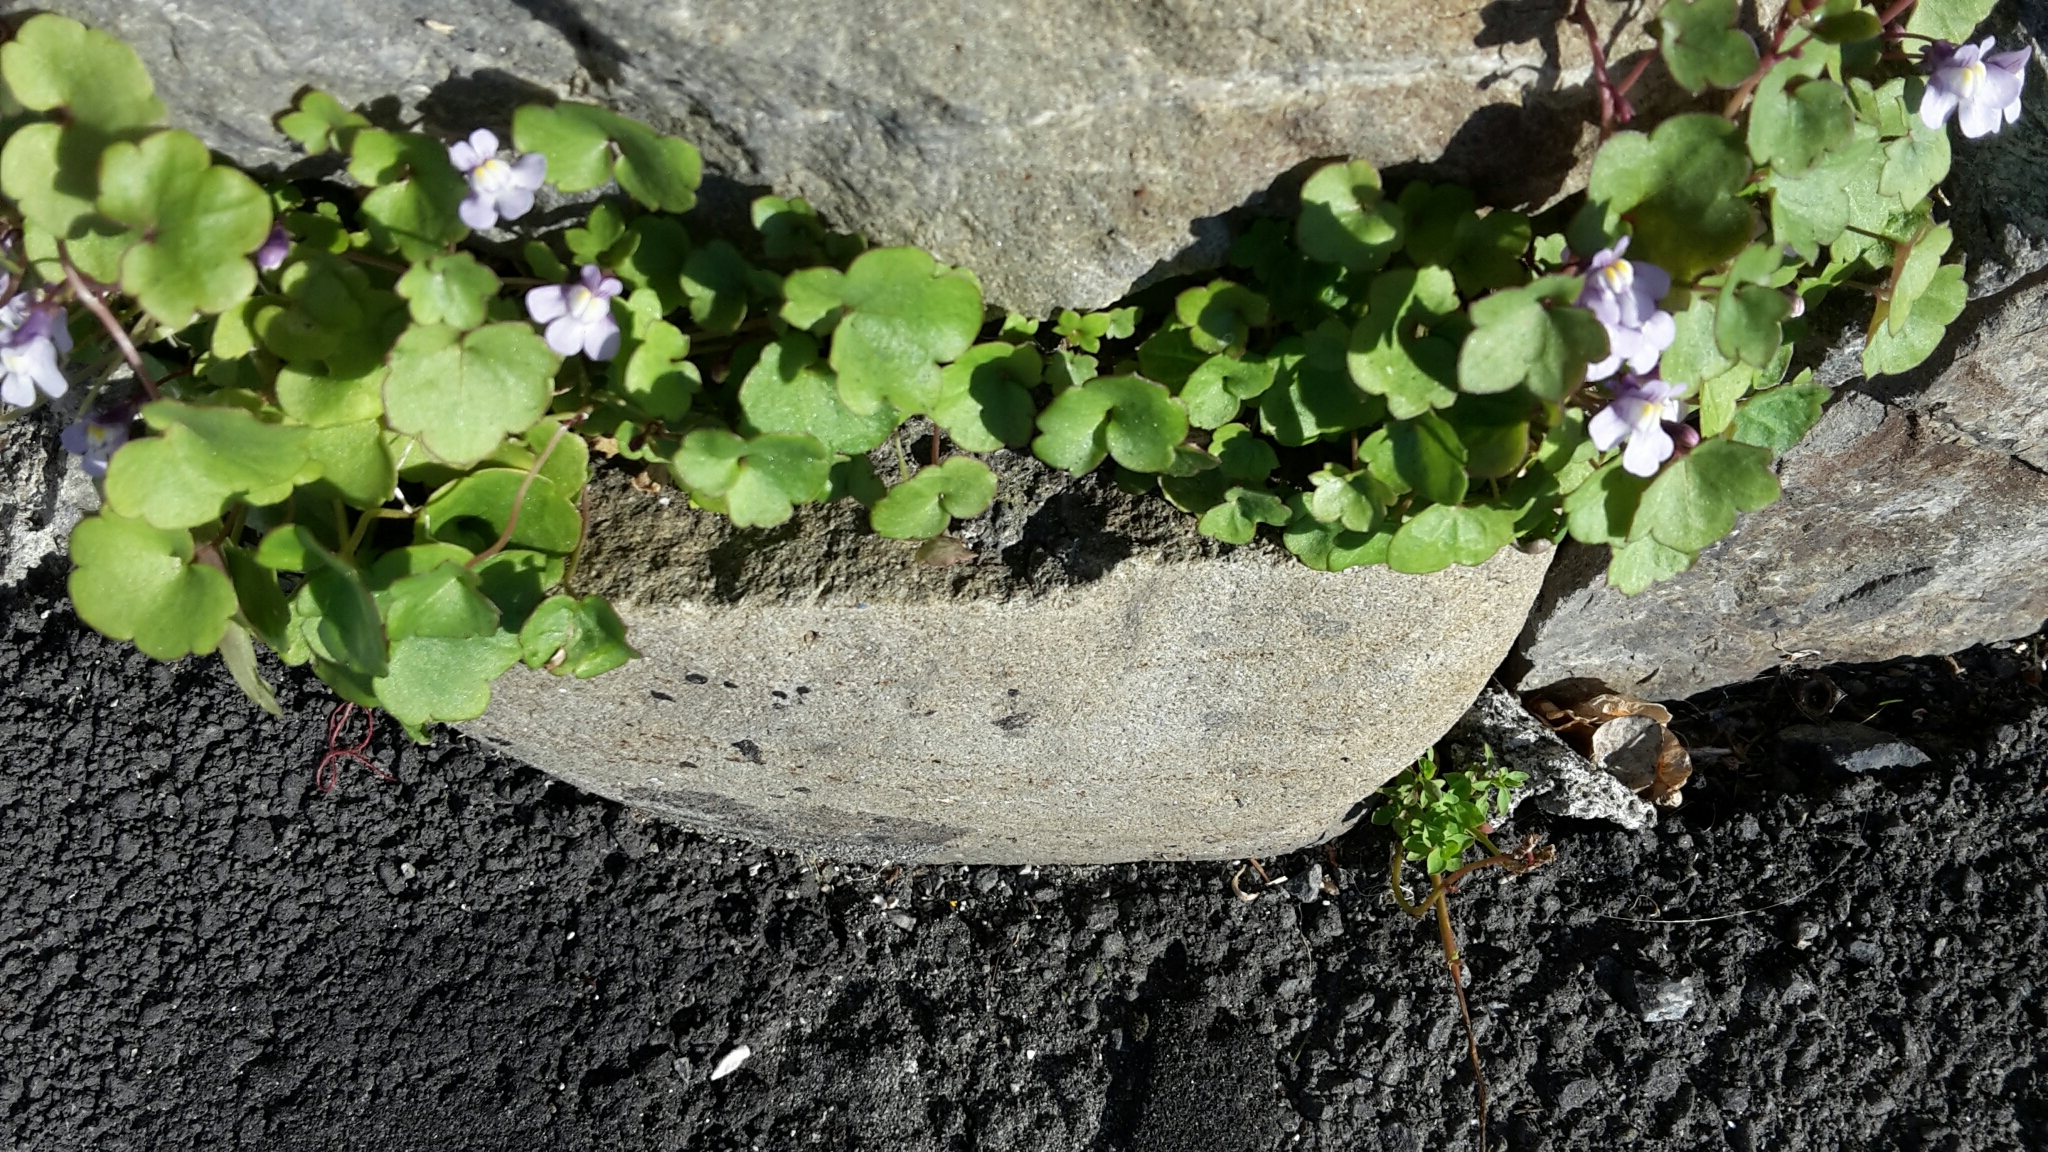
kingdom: Plantae
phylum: Tracheophyta
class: Magnoliopsida
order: Lamiales
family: Plantaginaceae
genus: Cymbalaria
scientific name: Cymbalaria muralis
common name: Ivy-leaved toadflax
